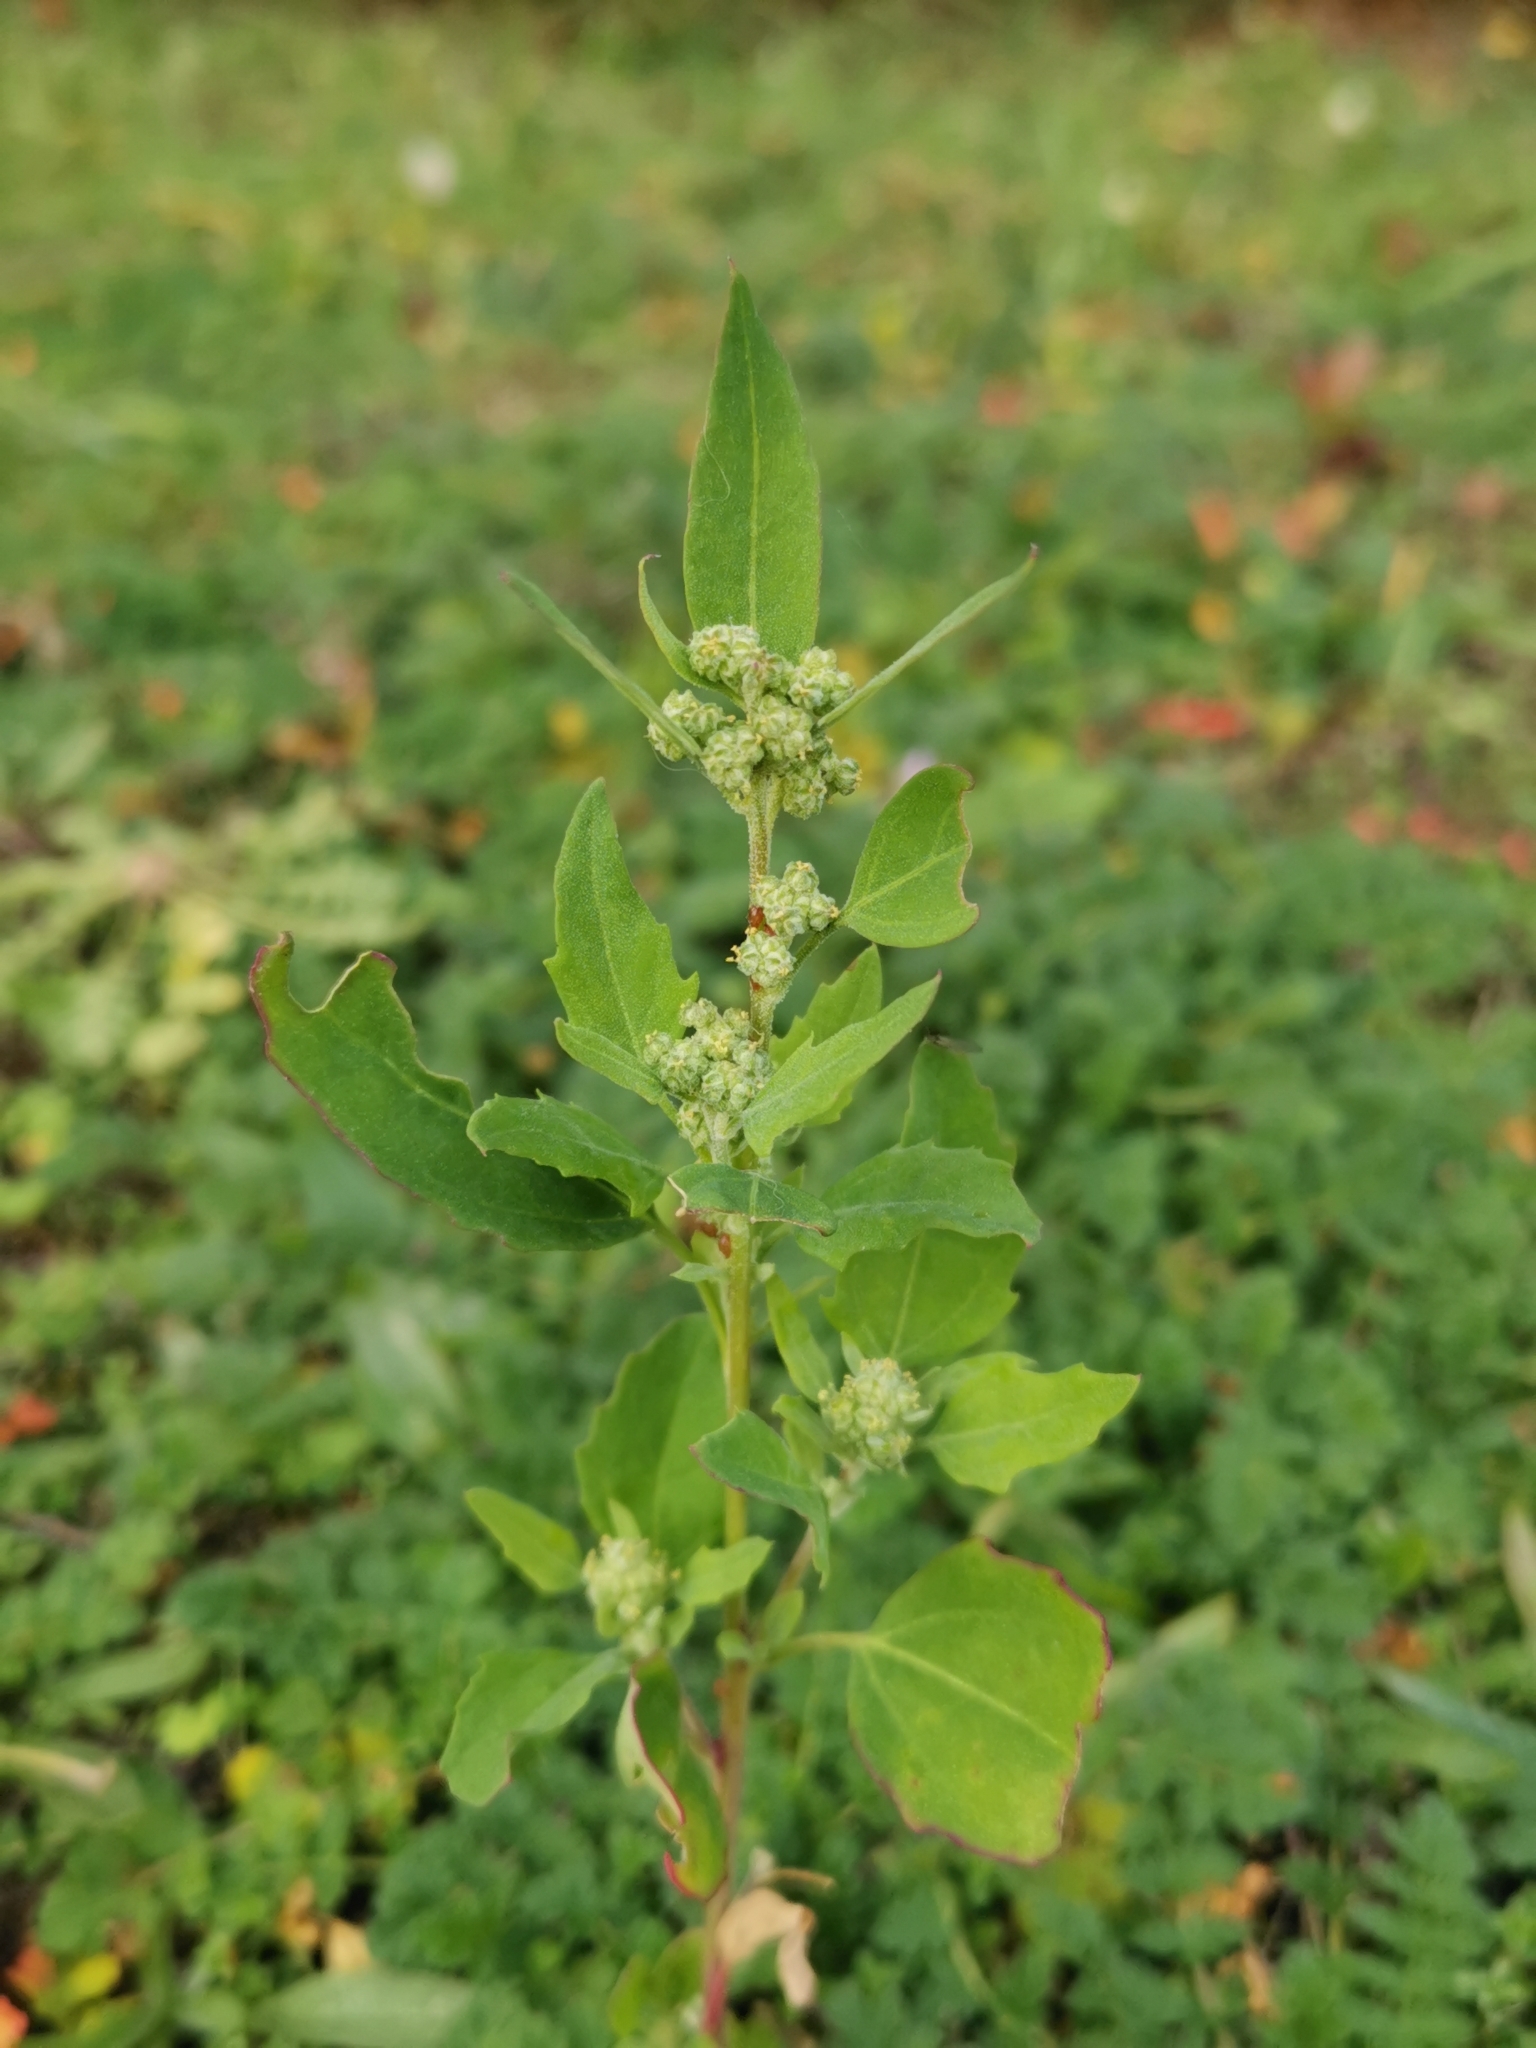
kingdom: Plantae
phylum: Tracheophyta
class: Magnoliopsida
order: Caryophyllales
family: Amaranthaceae
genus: Chenopodium
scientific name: Chenopodium album
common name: Fat-hen
